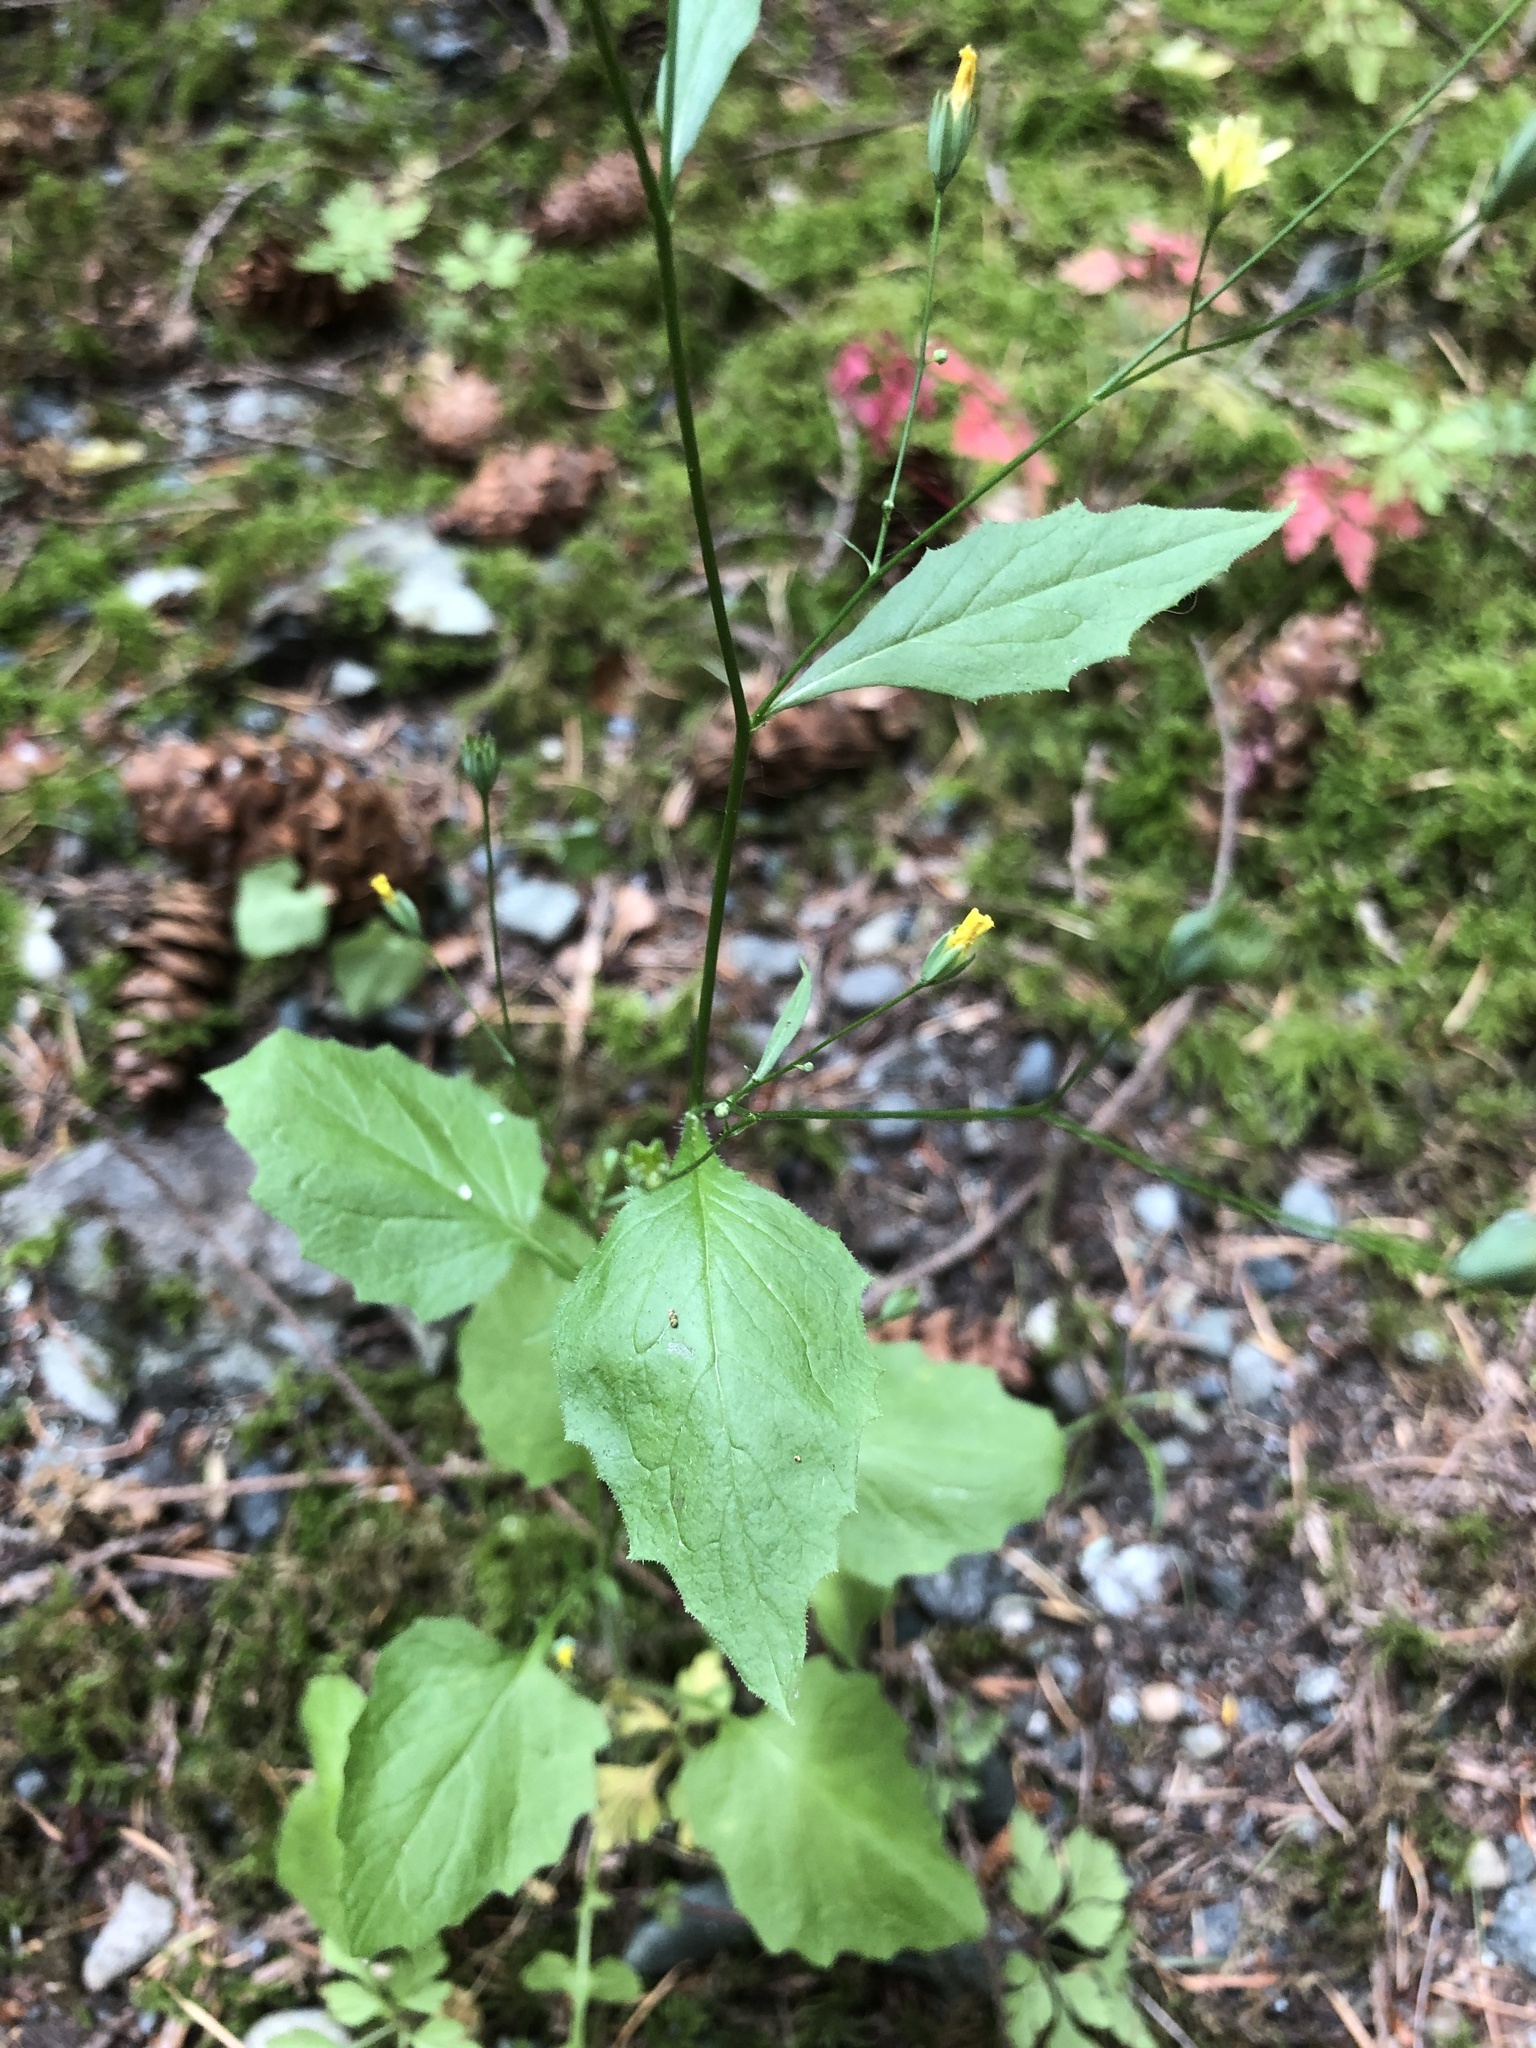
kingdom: Plantae
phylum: Tracheophyta
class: Magnoliopsida
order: Asterales
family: Asteraceae
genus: Lapsana
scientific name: Lapsana communis
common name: Nipplewort
